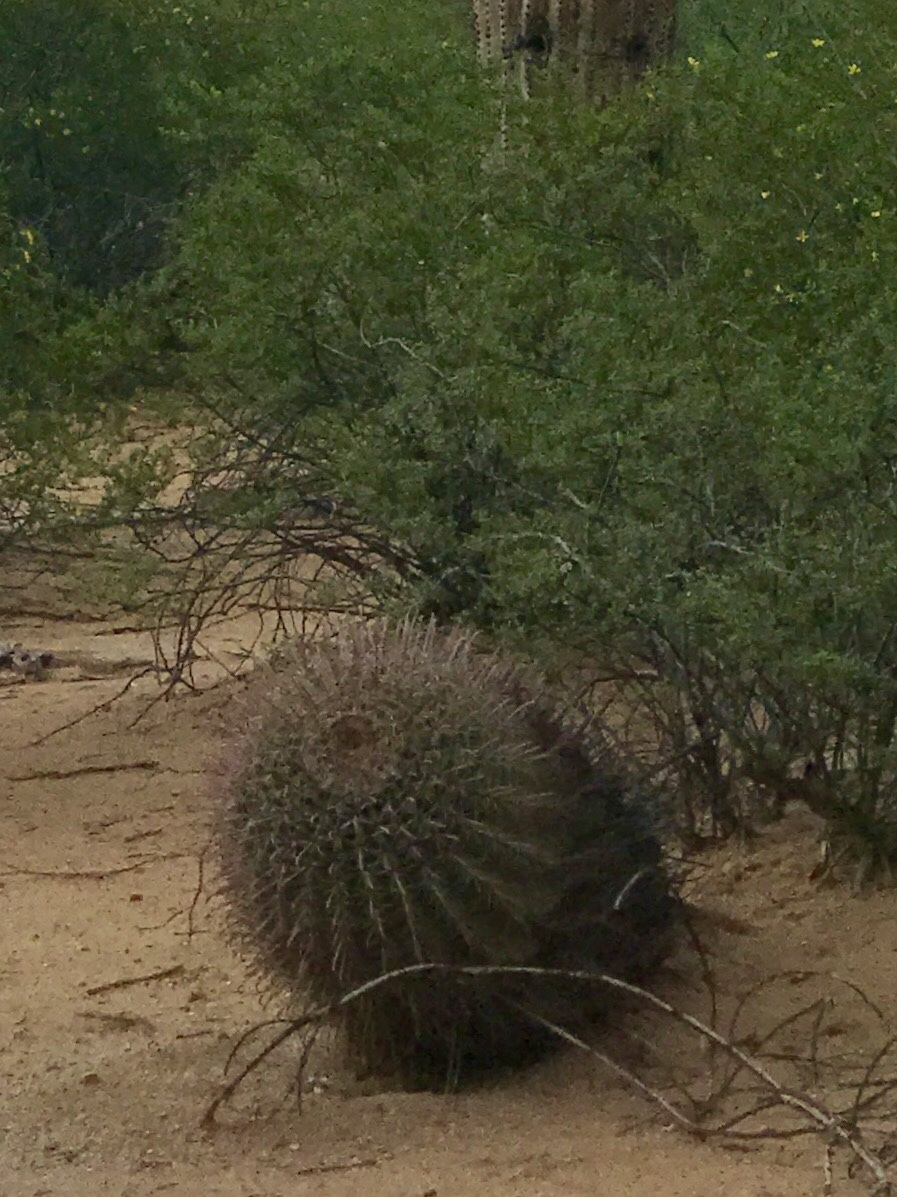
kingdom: Plantae
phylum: Tracheophyta
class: Magnoliopsida
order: Caryophyllales
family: Cactaceae
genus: Ferocactus
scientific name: Ferocactus wislizeni
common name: Candy barrel cactus
